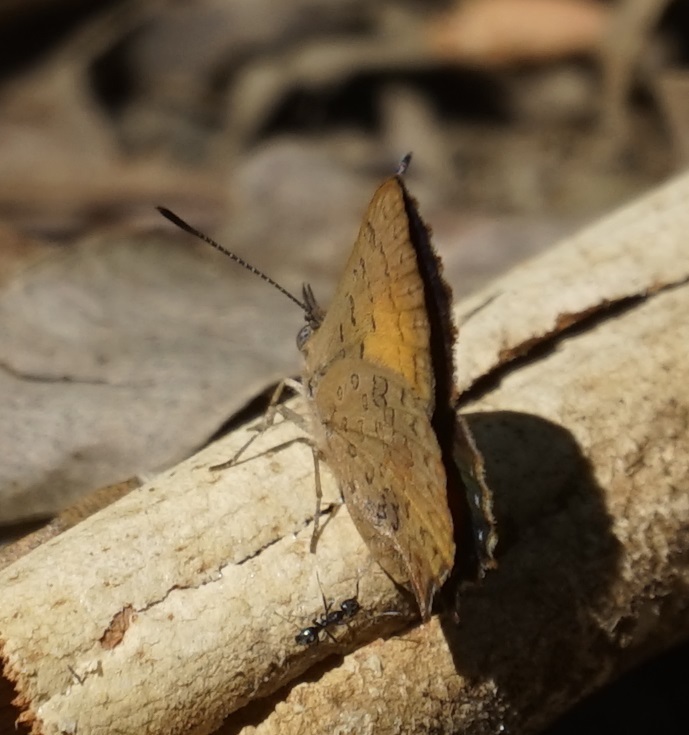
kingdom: Animalia
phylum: Arthropoda
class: Insecta
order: Lepidoptera
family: Lycaenidae
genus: Paralucia
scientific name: Paralucia aurifer
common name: Bright copper
